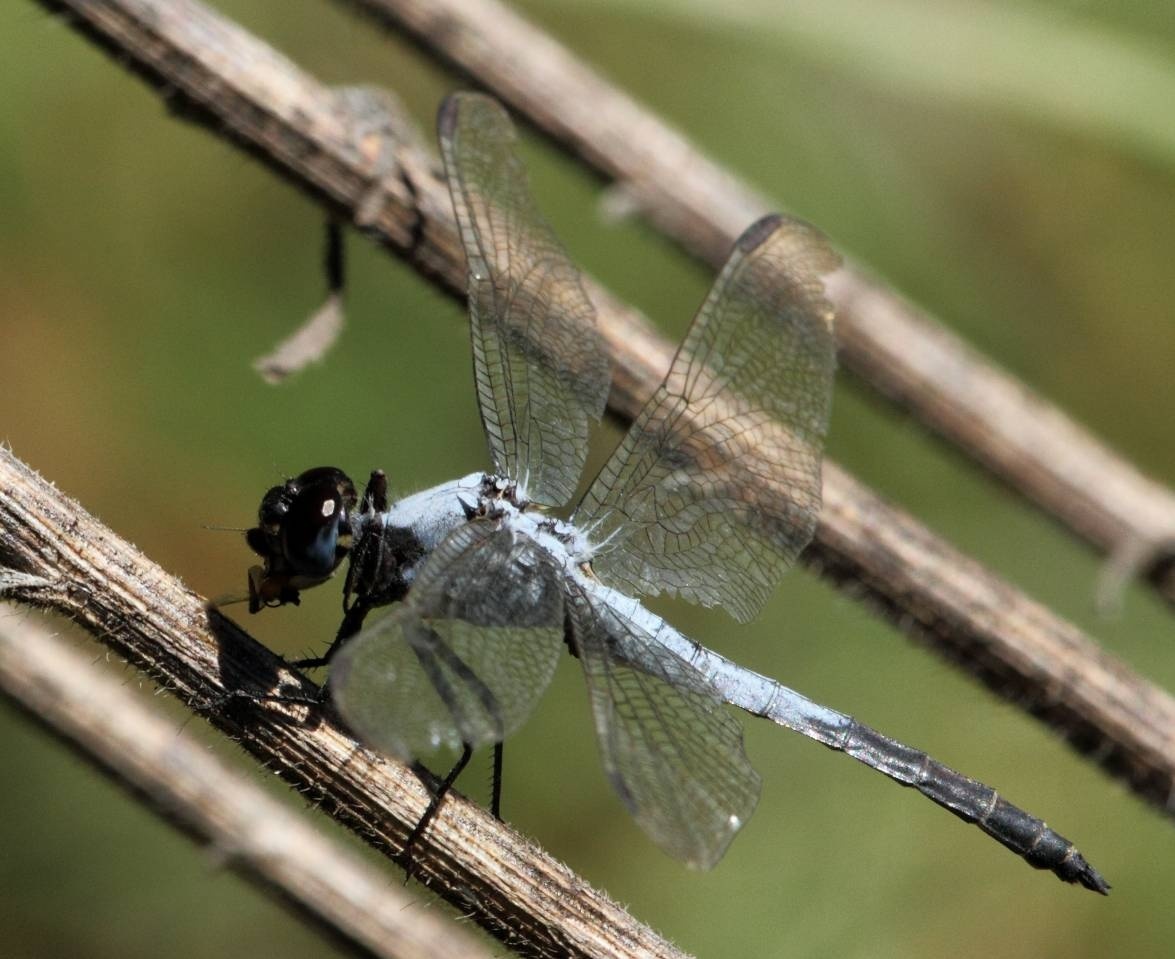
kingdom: Animalia
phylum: Arthropoda
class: Insecta
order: Odonata
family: Libellulidae
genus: Nesciothemis
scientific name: Nesciothemis farinosa
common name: Eastern blacktail
